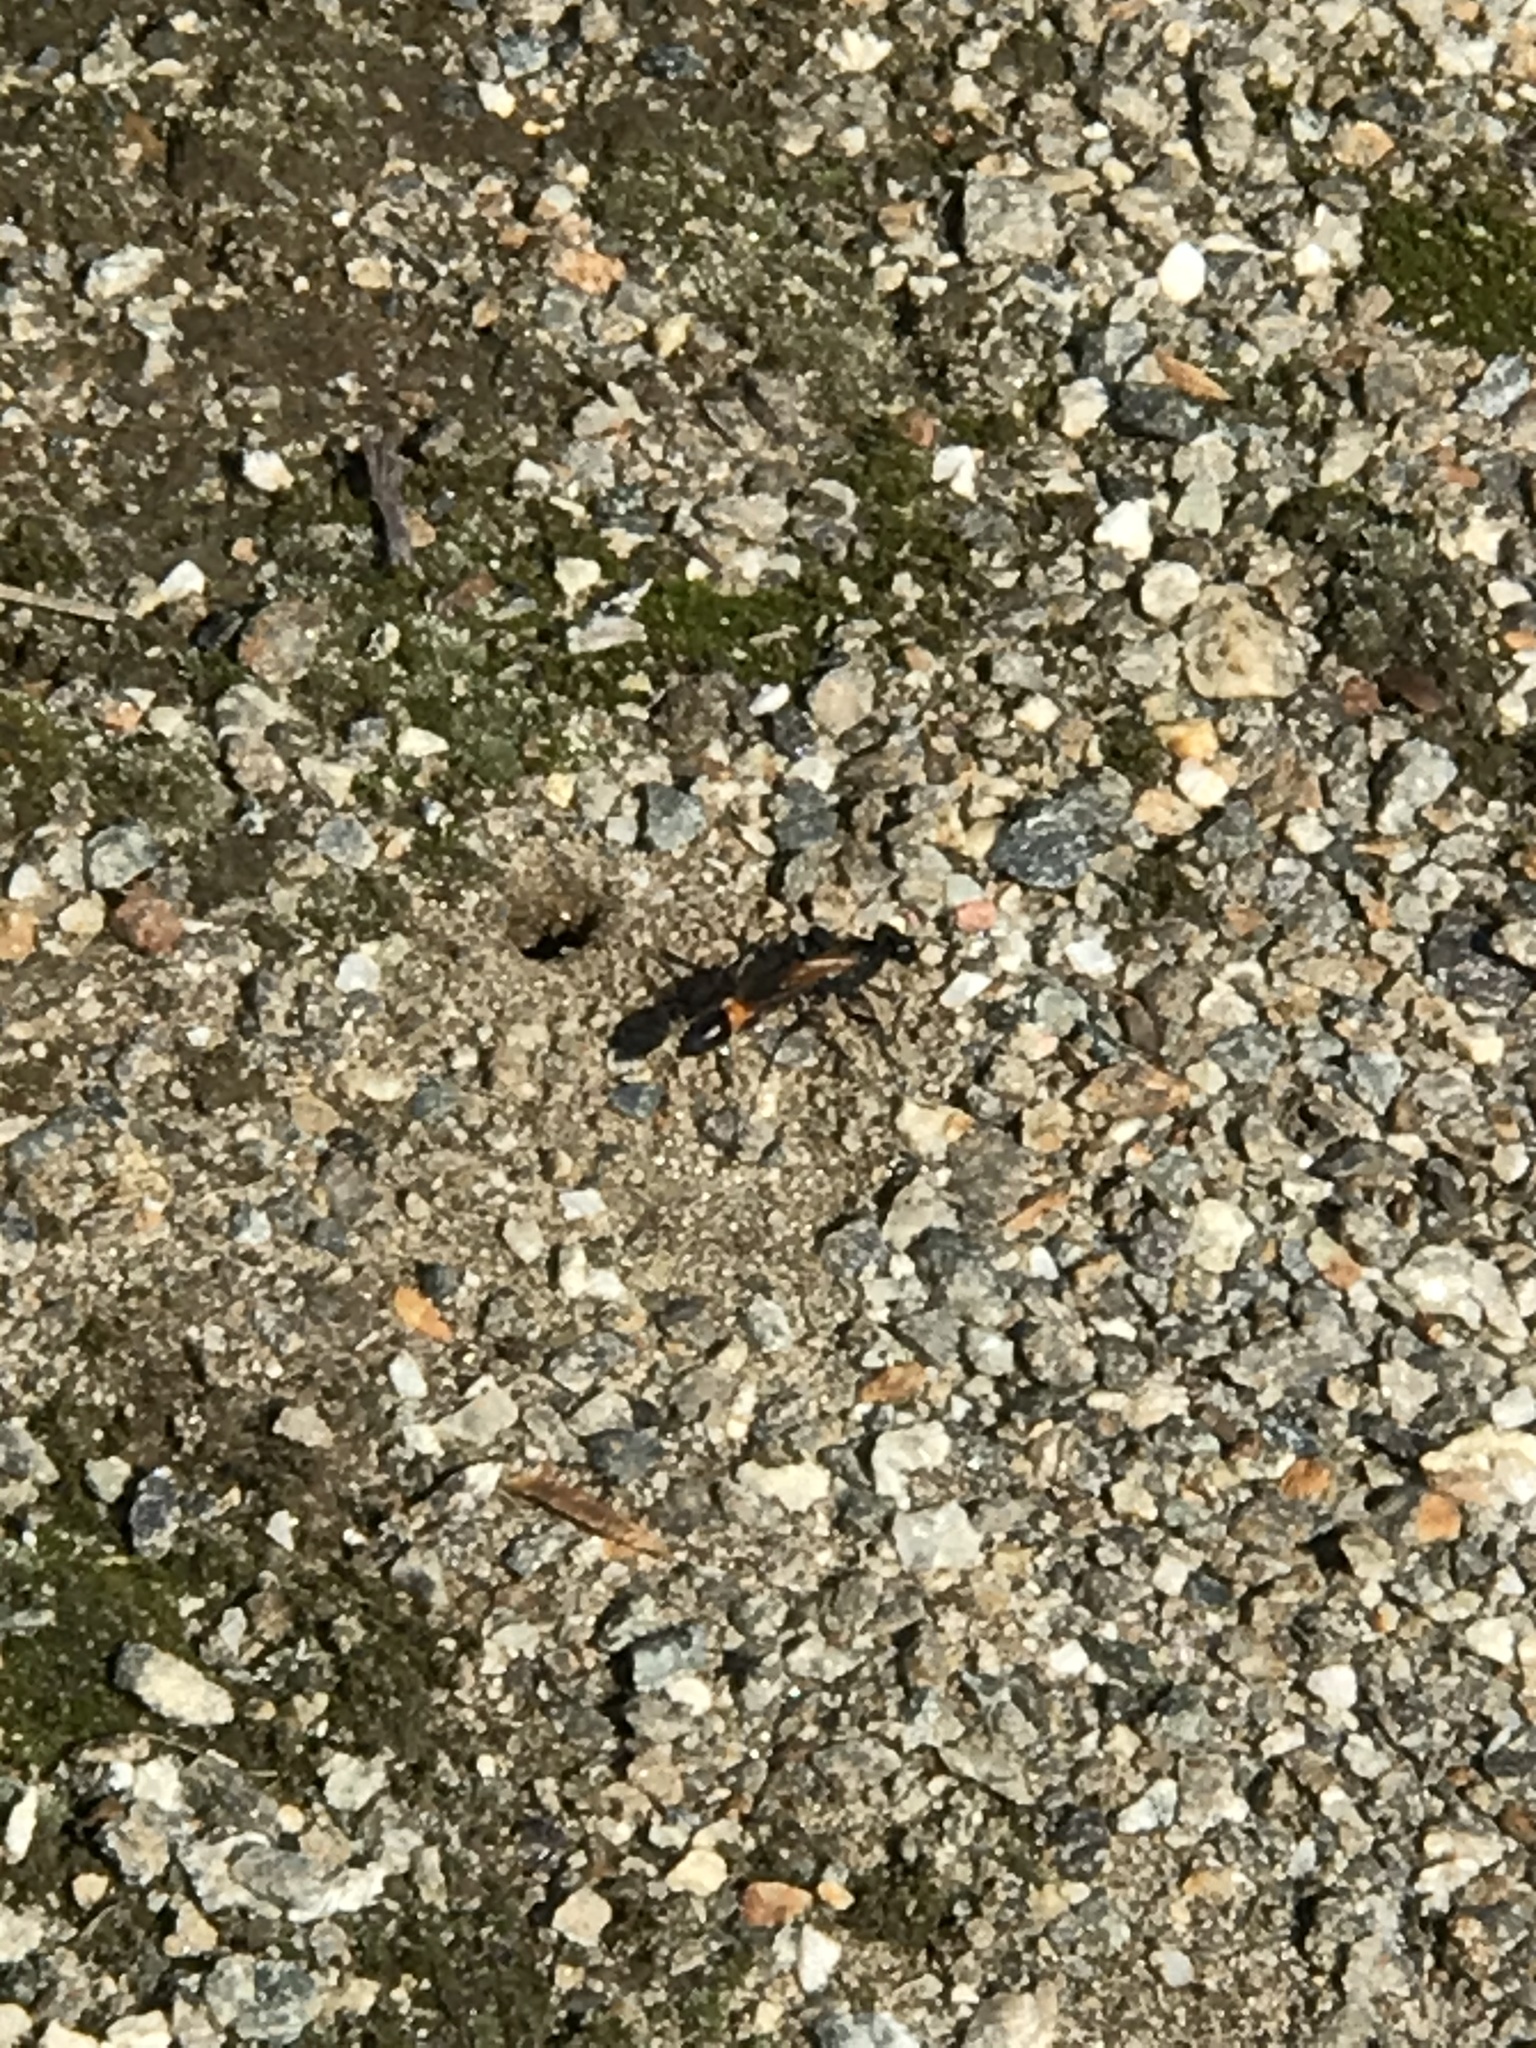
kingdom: Animalia
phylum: Arthropoda
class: Insecta
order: Hymenoptera
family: Sphecidae
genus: Ammophila
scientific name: Ammophila pictipennis
